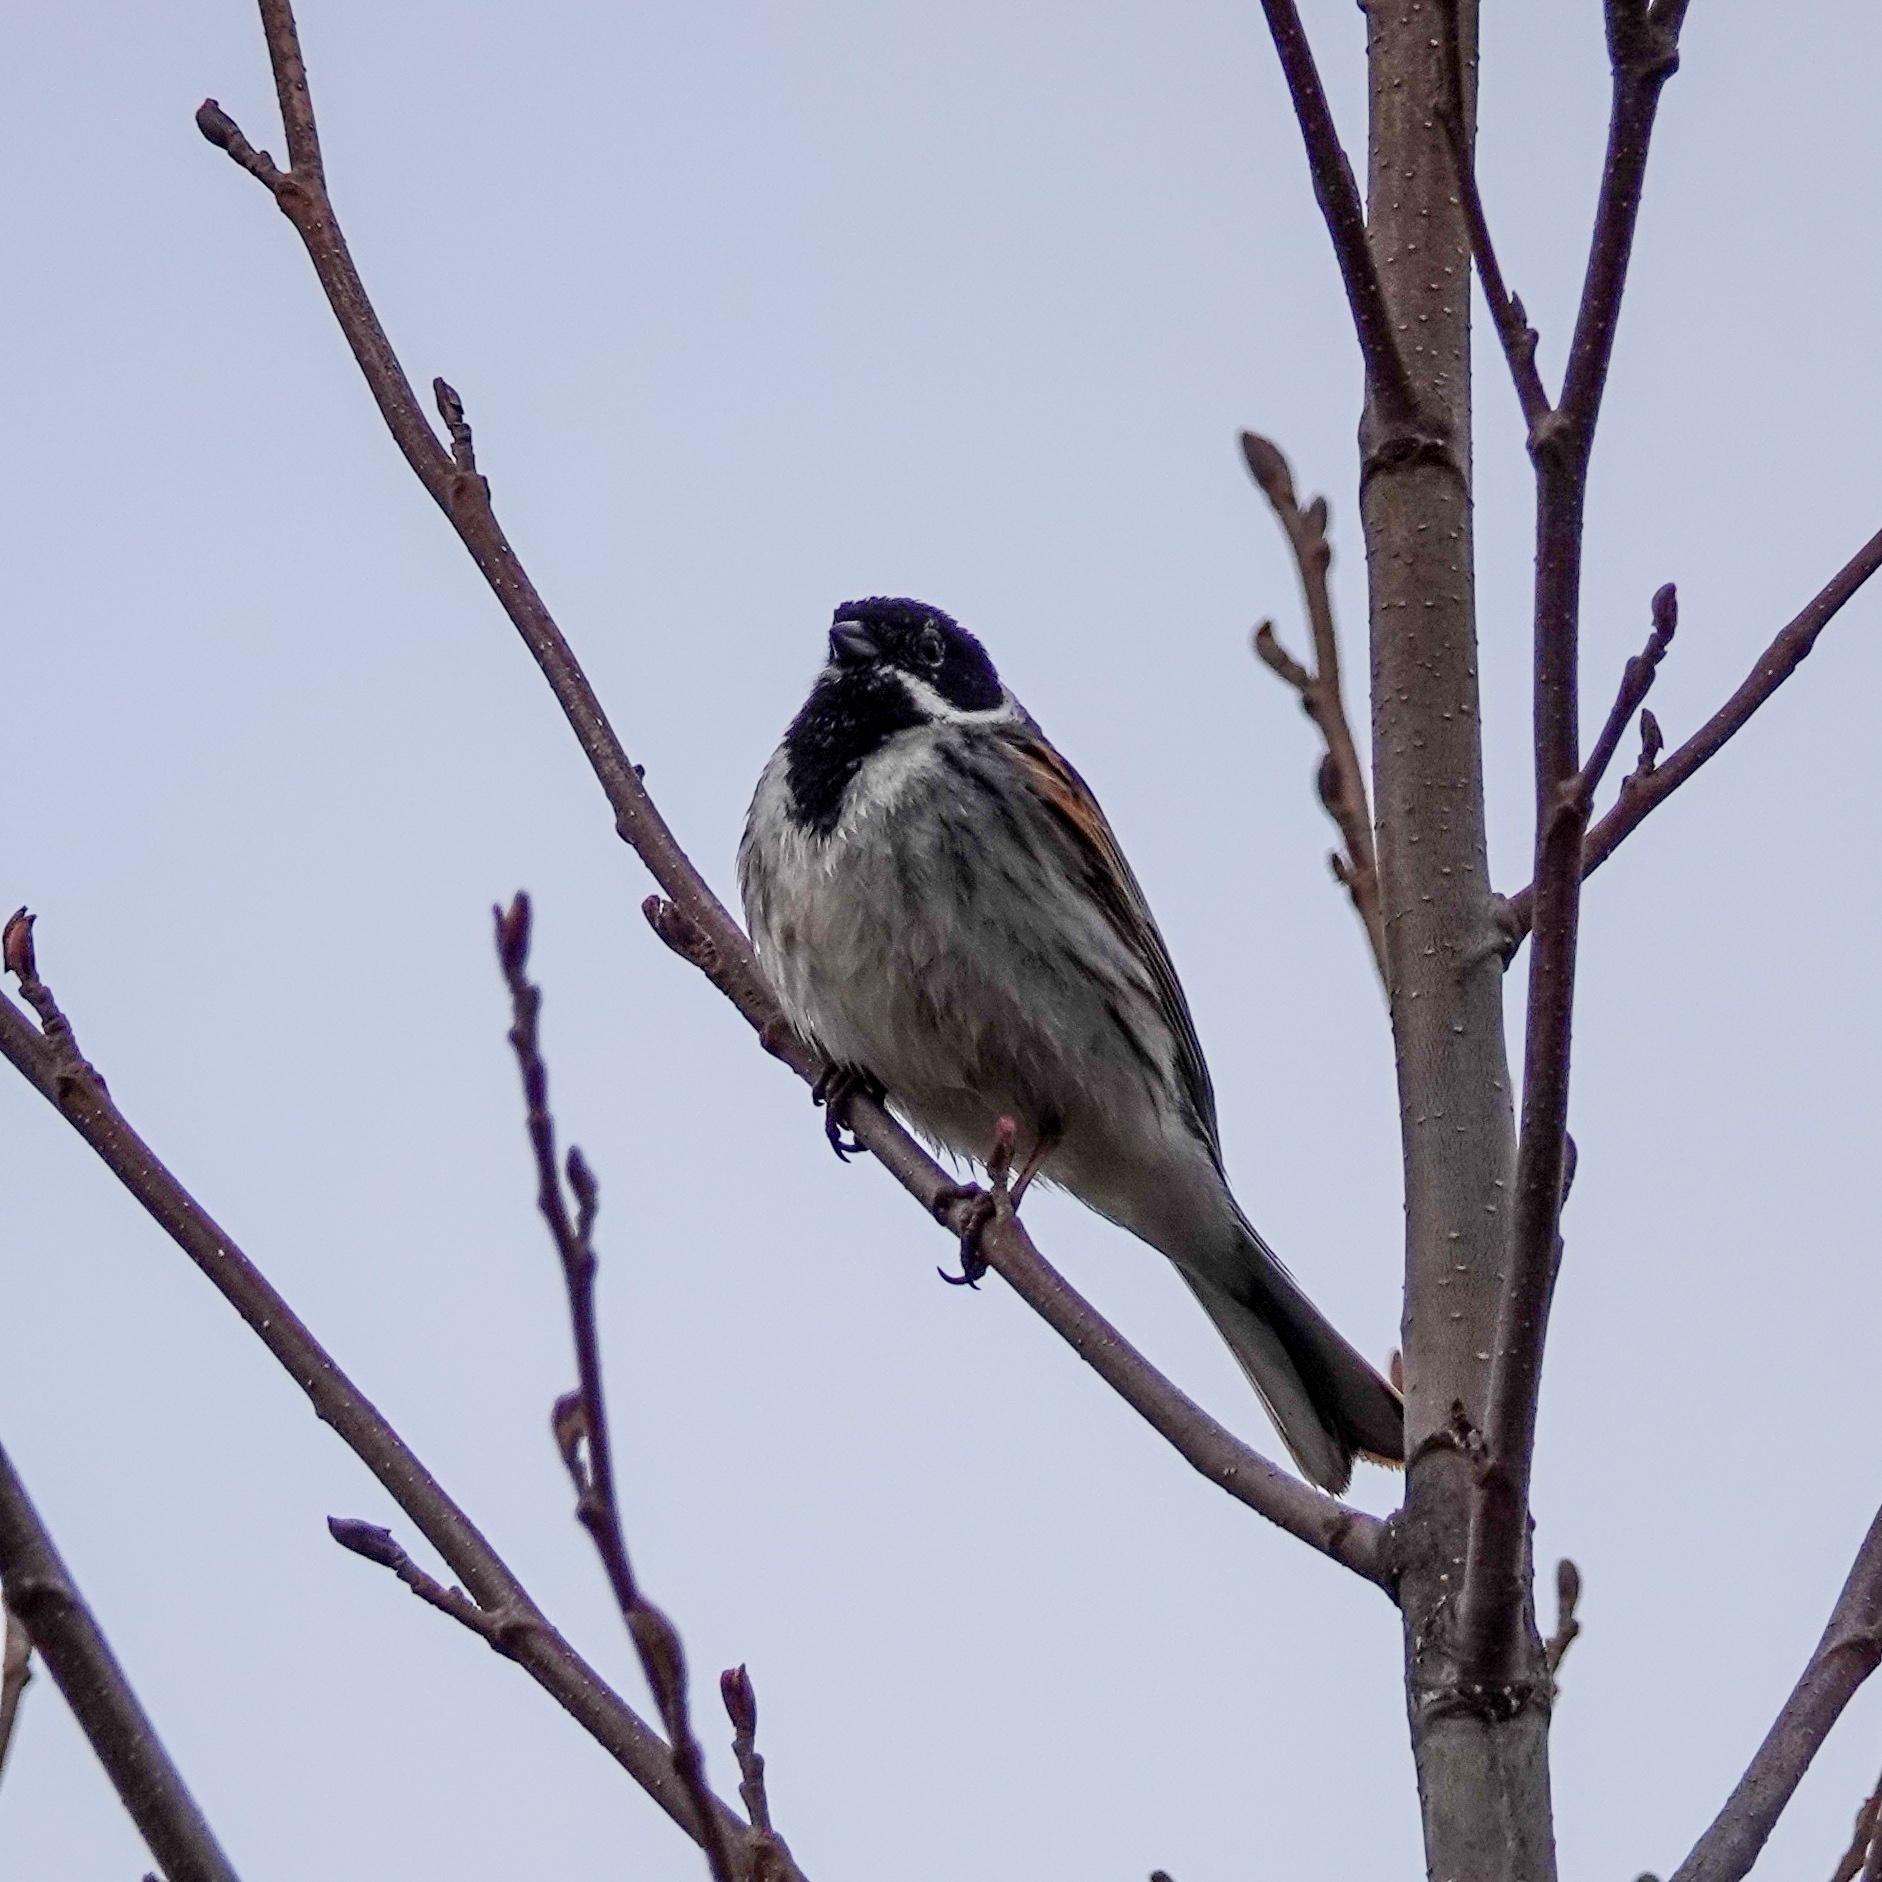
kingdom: Animalia
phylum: Chordata
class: Aves
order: Passeriformes
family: Emberizidae
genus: Emberiza
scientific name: Emberiza schoeniclus
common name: Reed bunting
